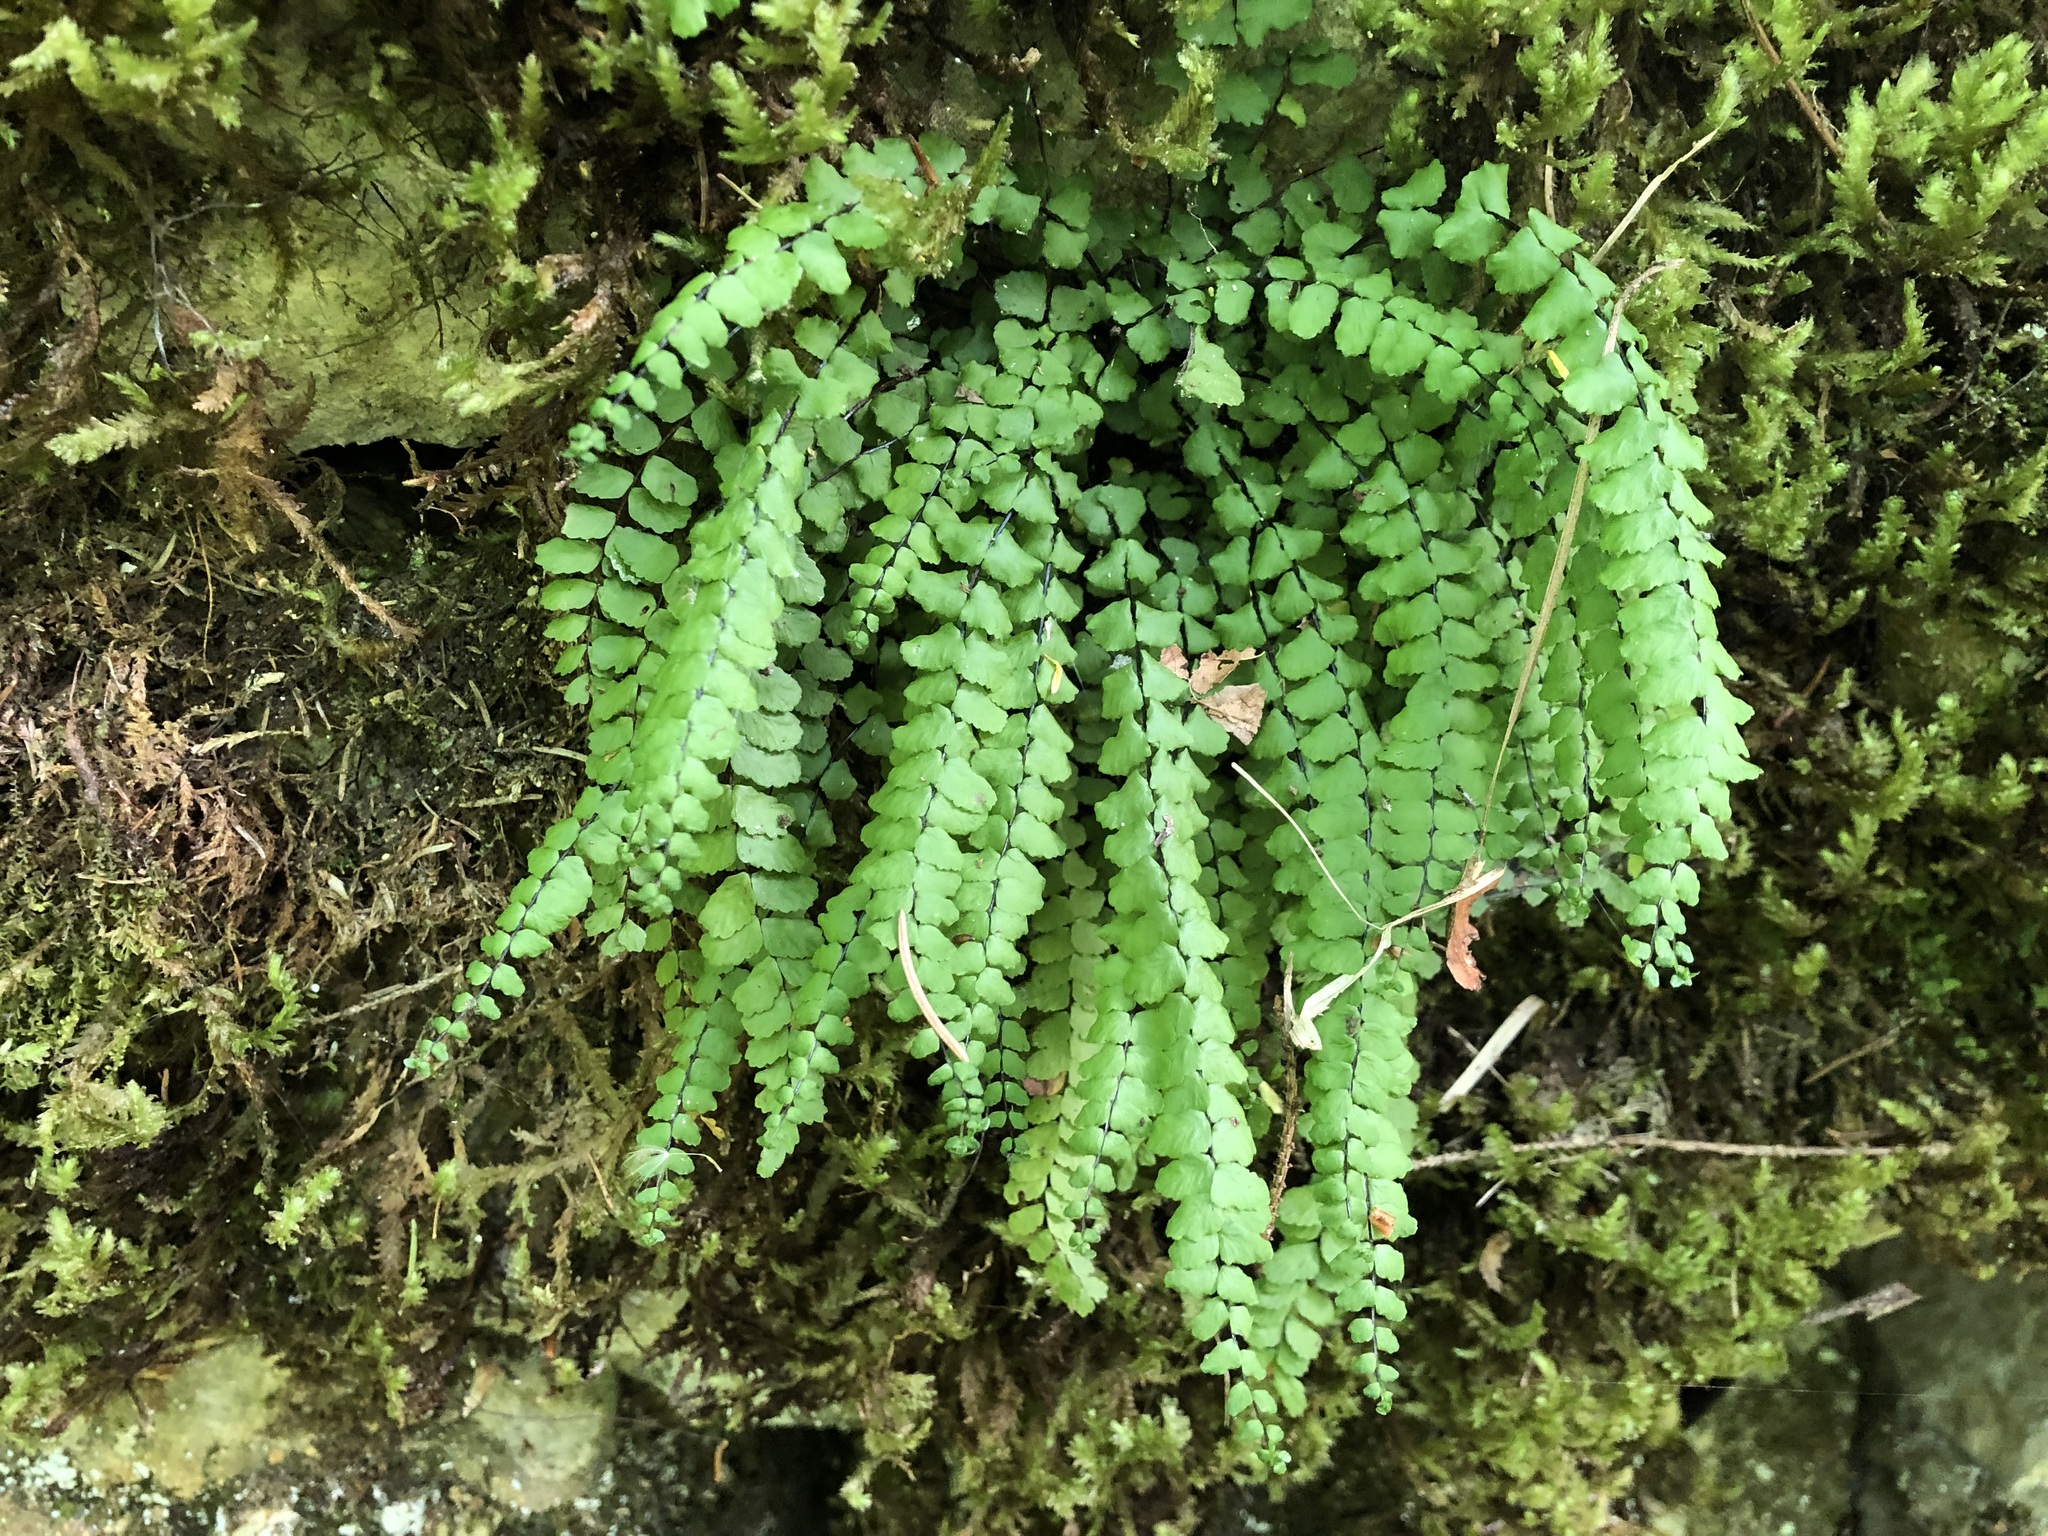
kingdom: Plantae
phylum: Tracheophyta
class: Polypodiopsida
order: Polypodiales
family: Aspleniaceae
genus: Asplenium
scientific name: Asplenium trichomanes
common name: Maidenhair spleenwort
